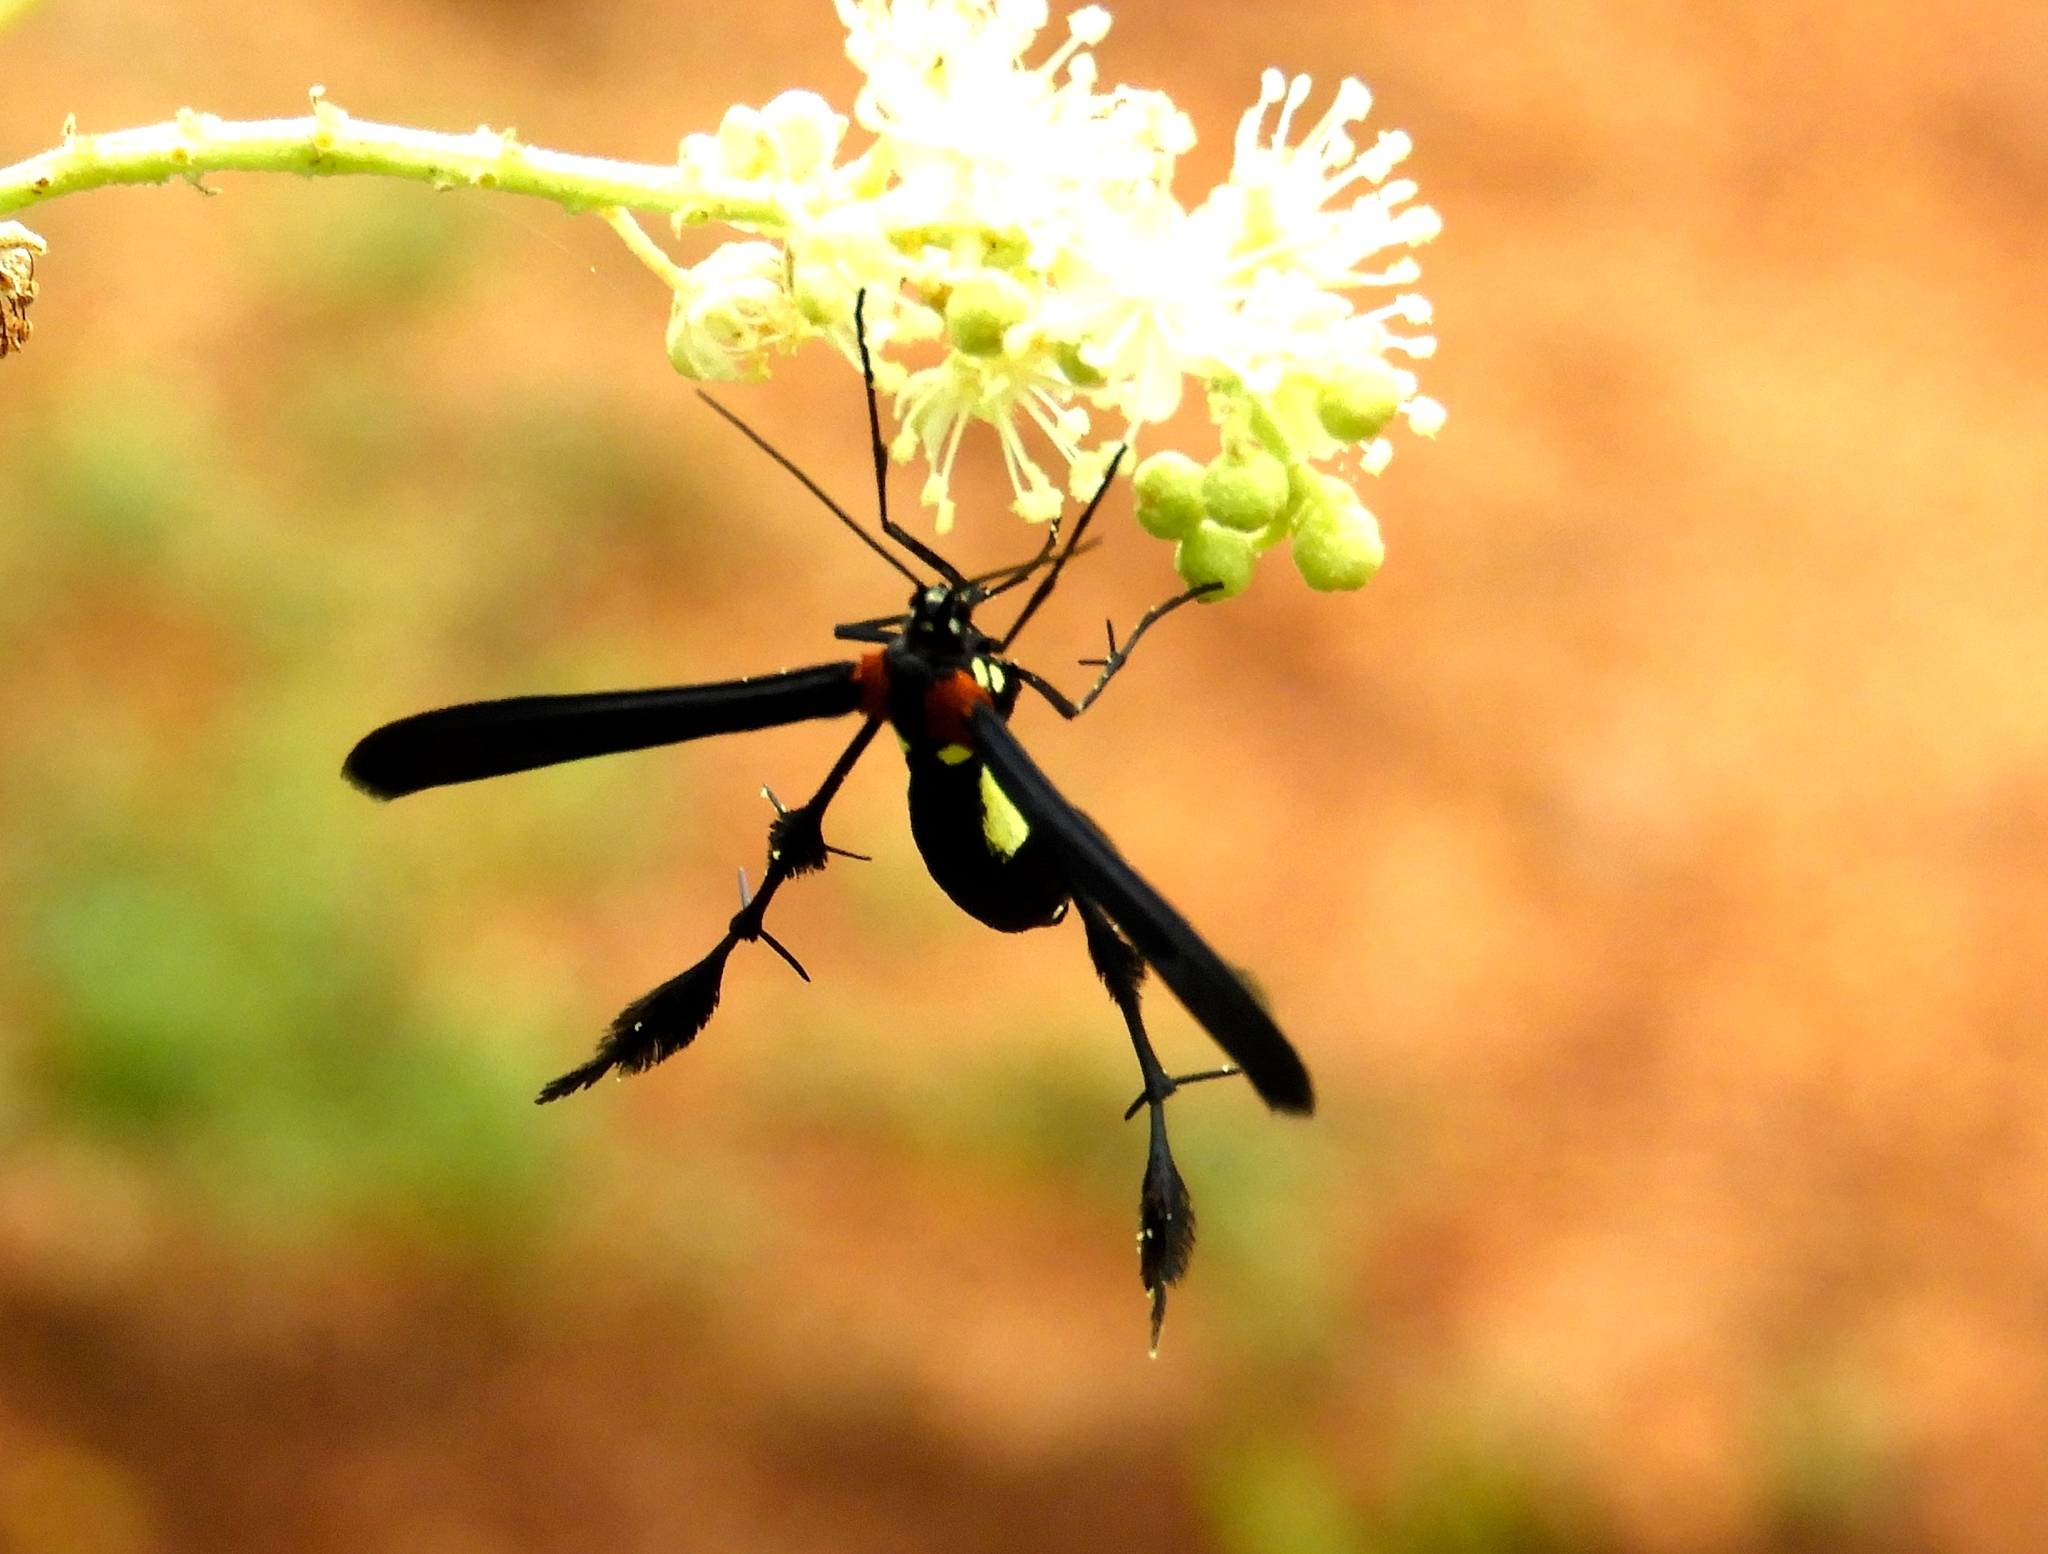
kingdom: Animalia
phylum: Arthropoda
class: Insecta
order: Lepidoptera
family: Pterophoridae
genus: Hellinsia
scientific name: Hellinsia chamelai
